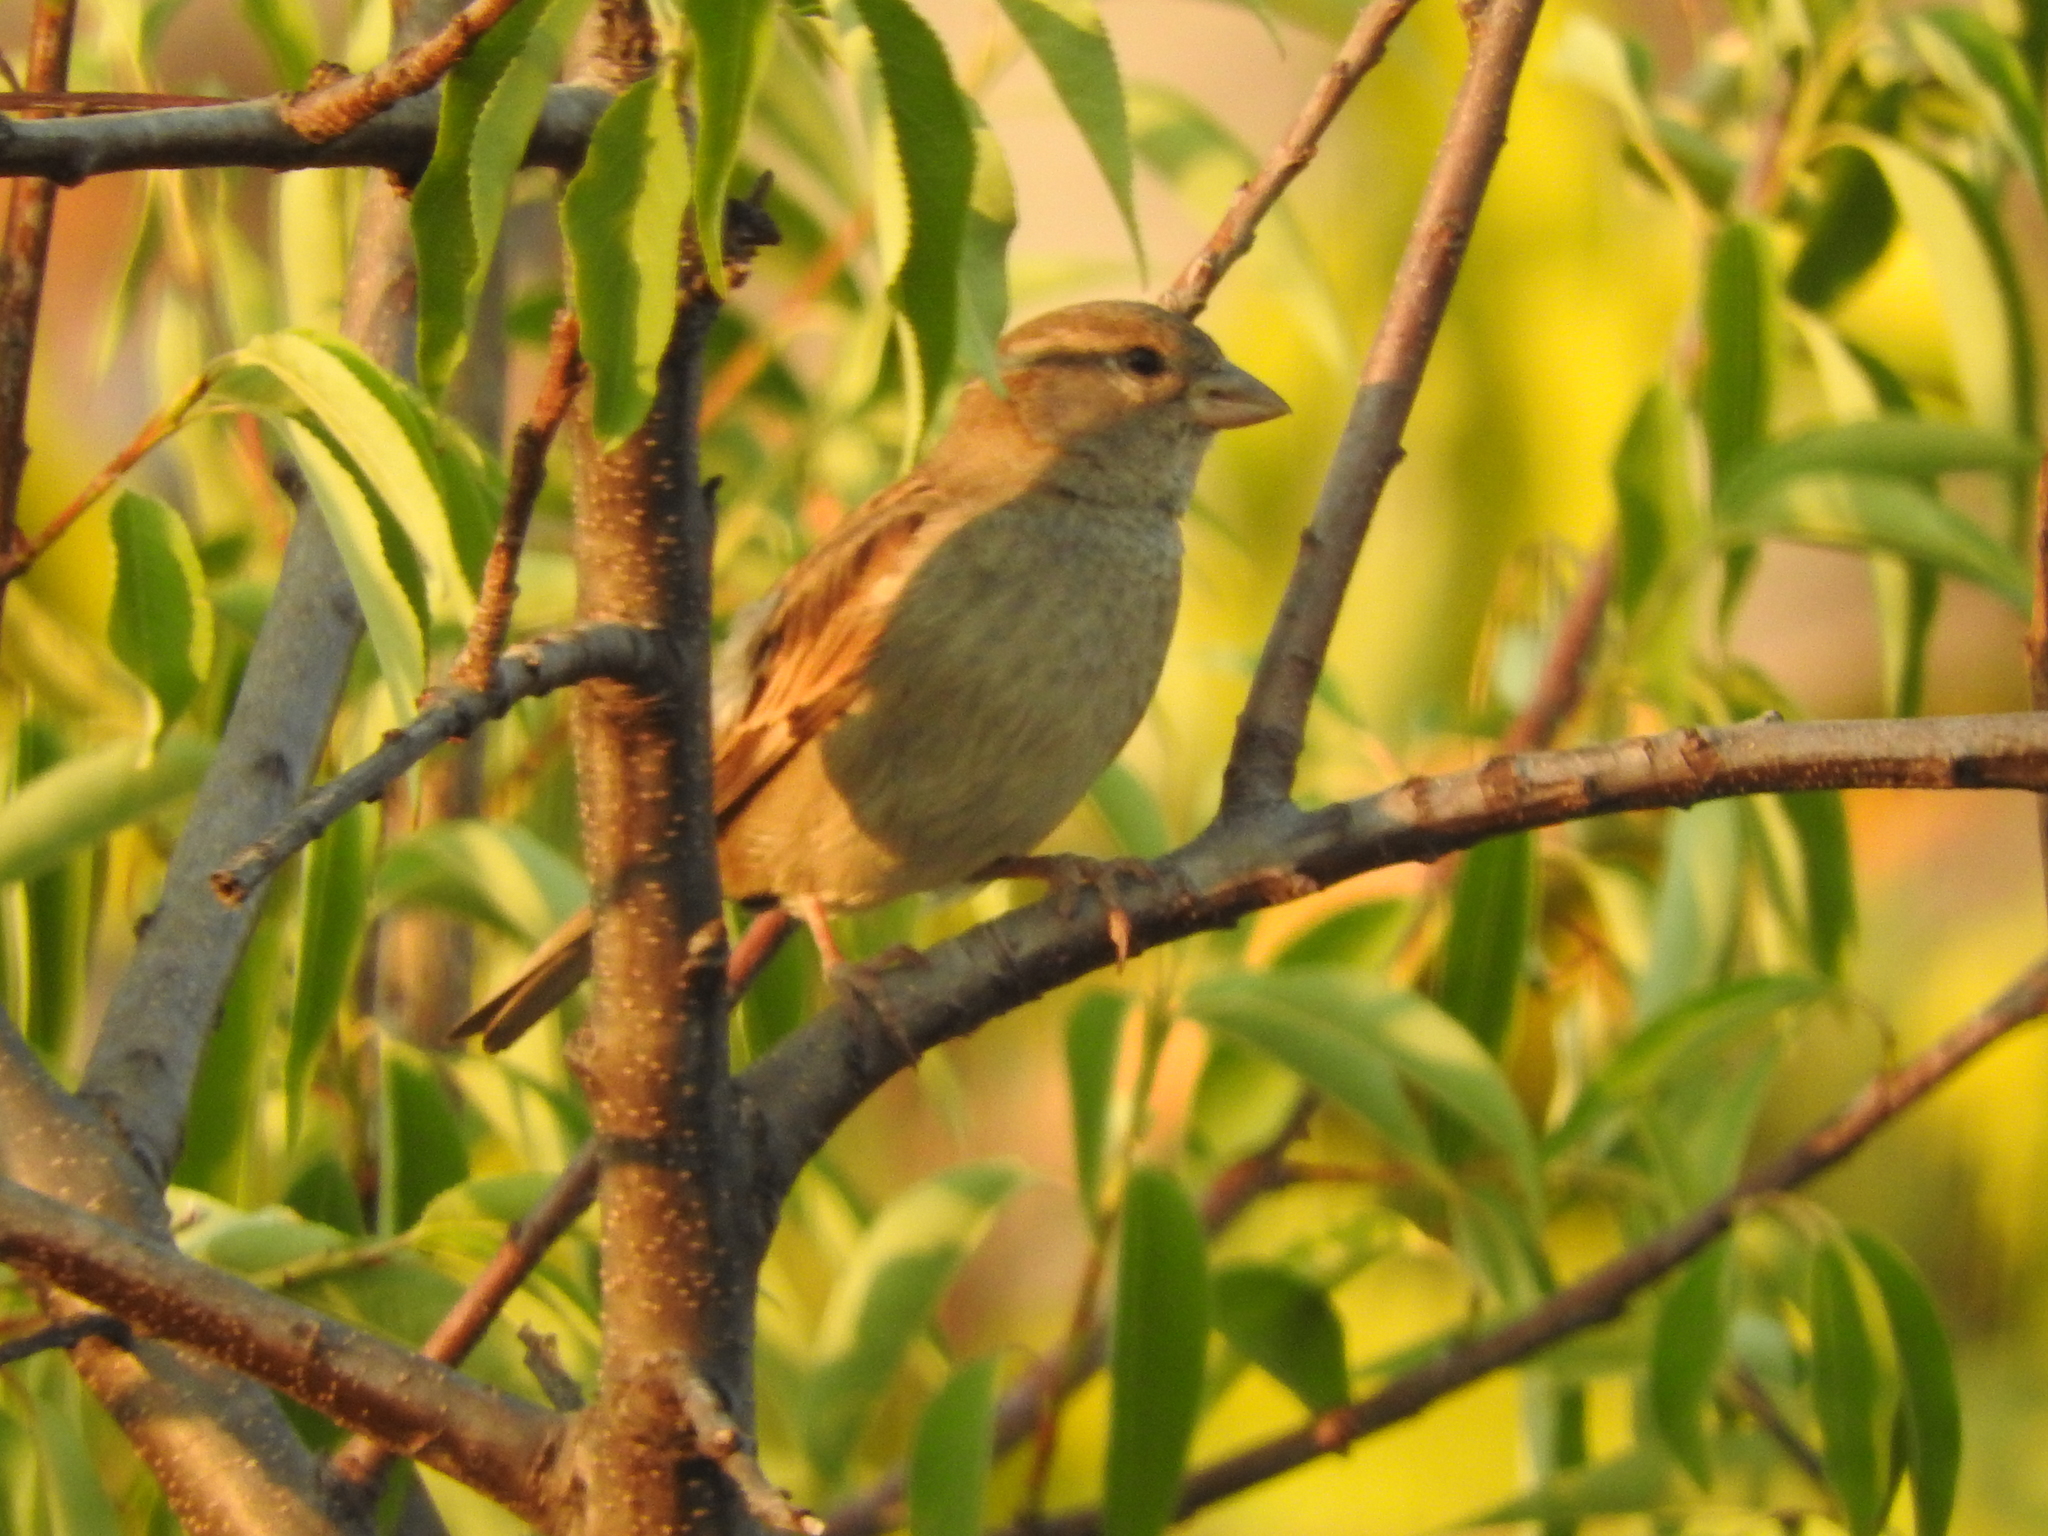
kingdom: Animalia
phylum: Chordata
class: Aves
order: Passeriformes
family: Passeridae
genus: Passer
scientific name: Passer domesticus
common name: House sparrow
